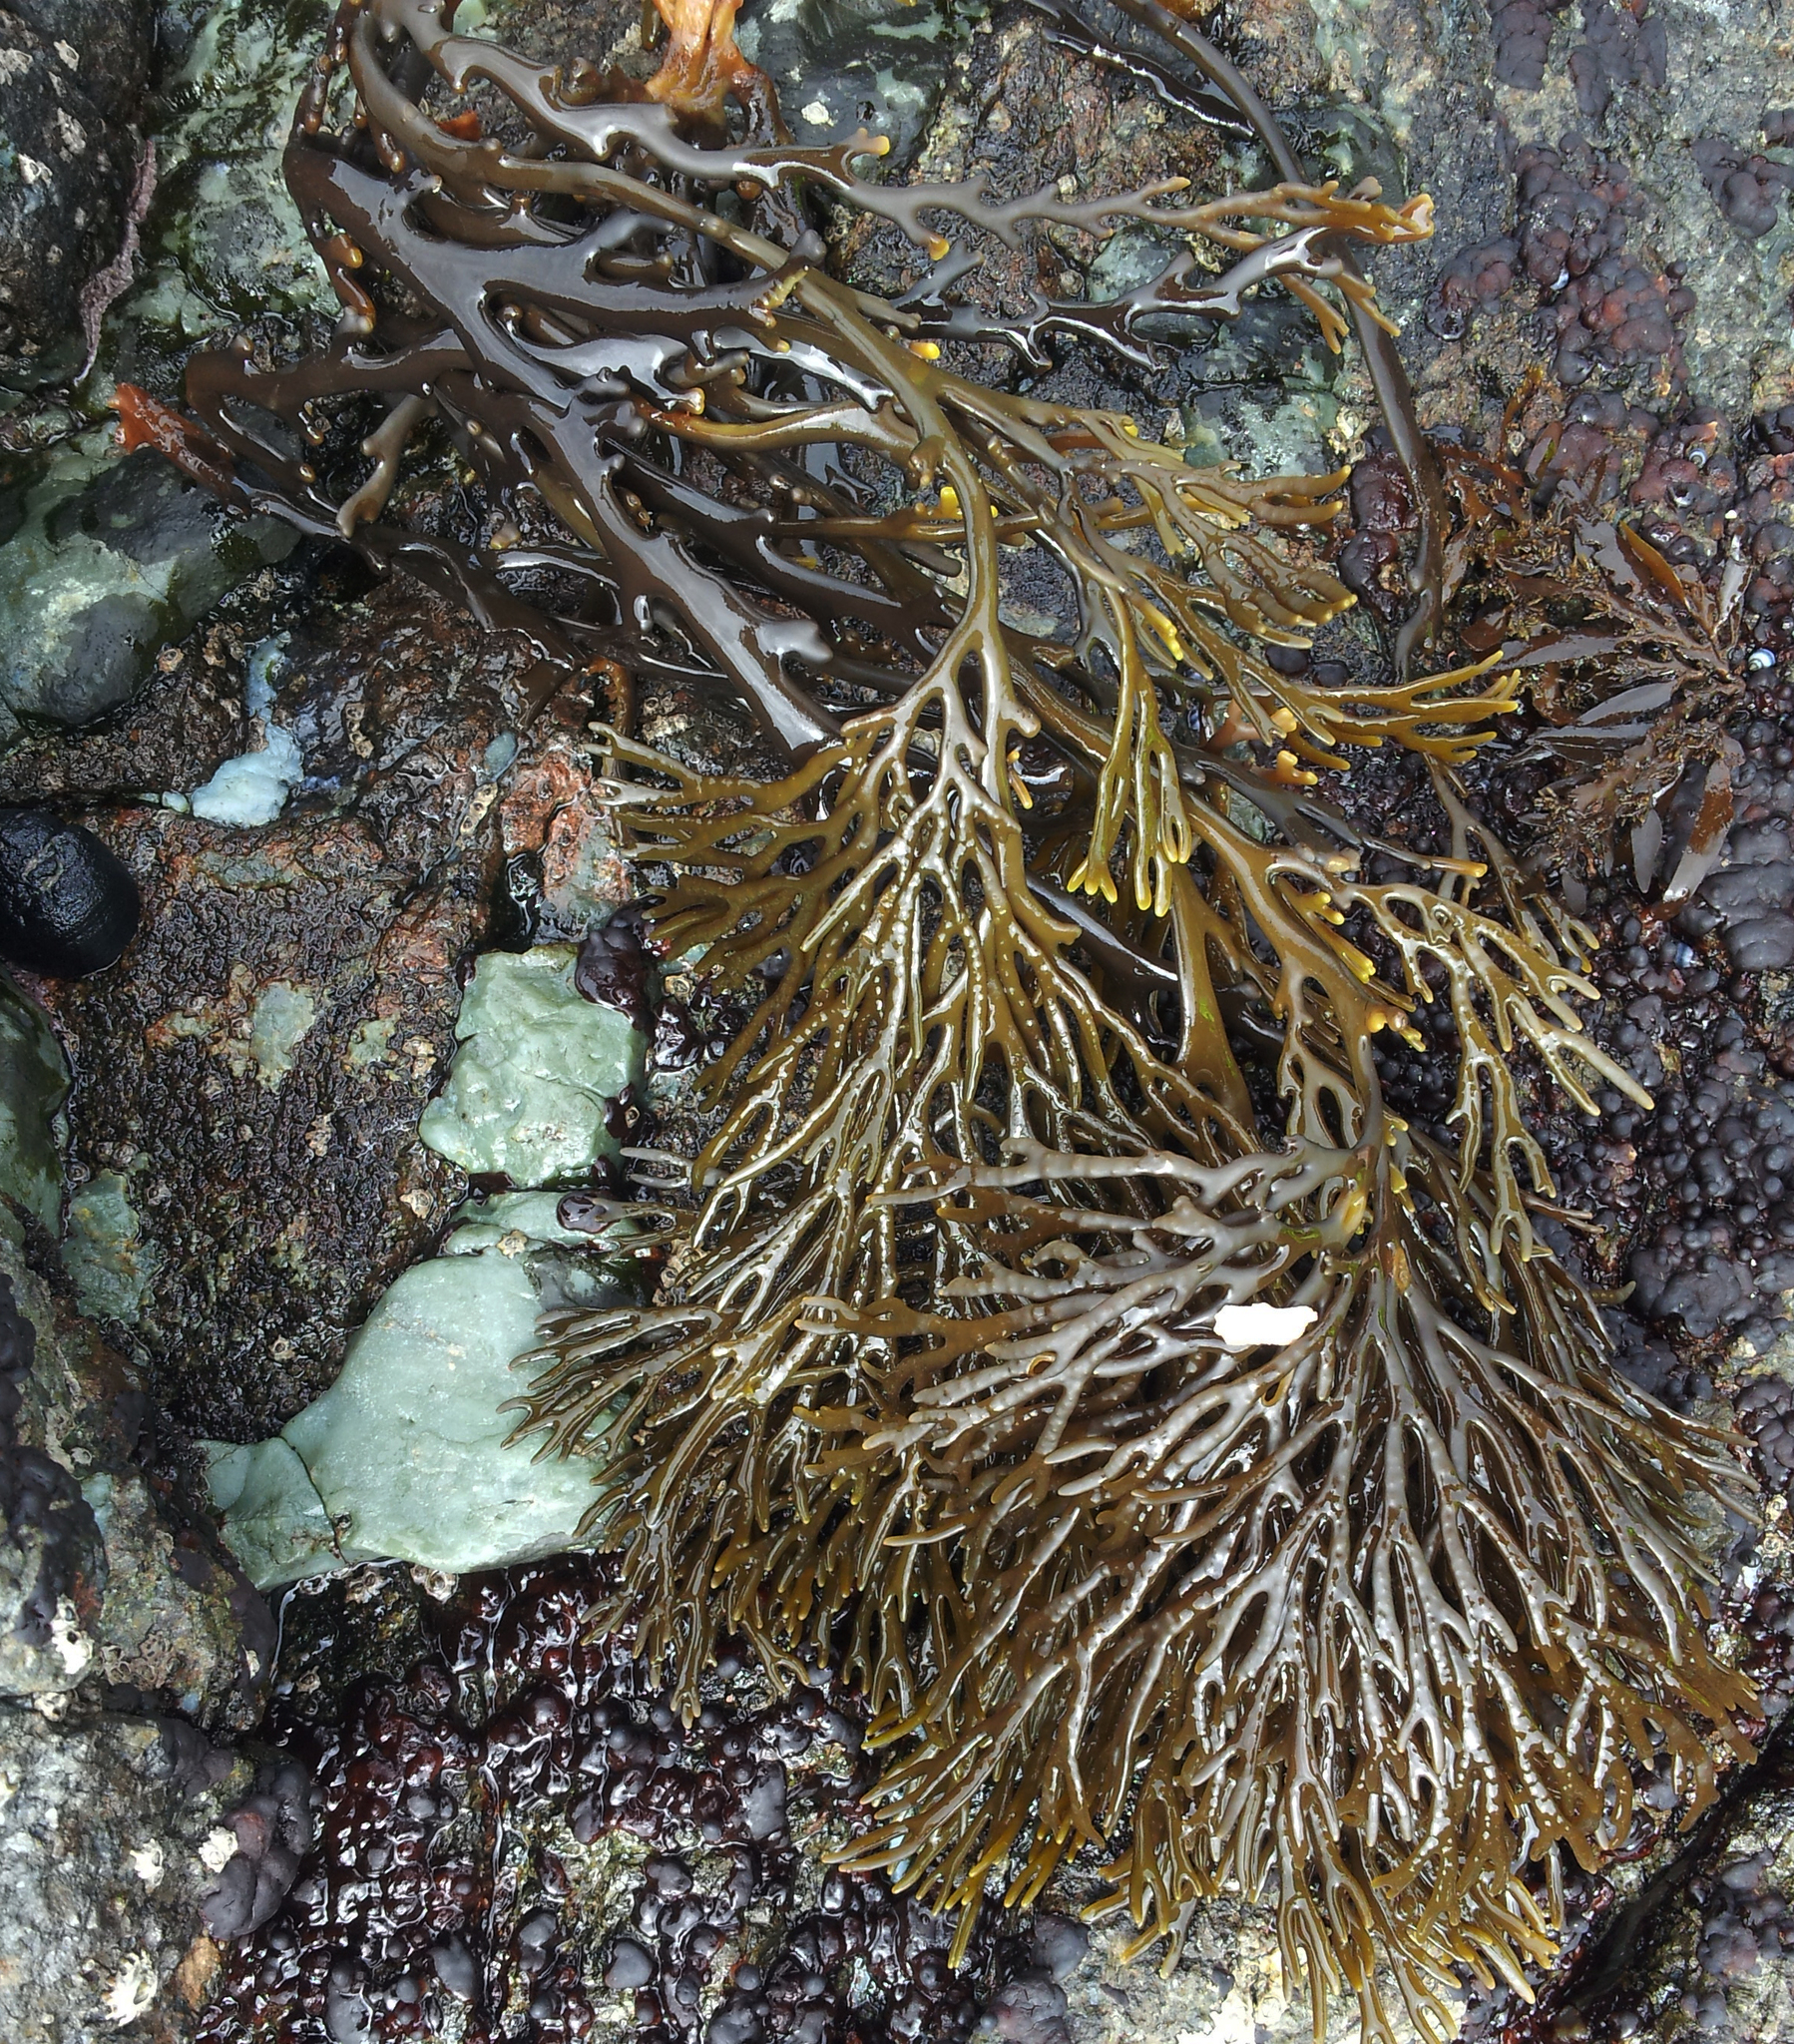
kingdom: Chromista
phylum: Ochrophyta
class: Phaeophyceae
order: Fucales
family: Xiphophoraceae
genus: Xiphophora
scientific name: Xiphophora chondrophylla
